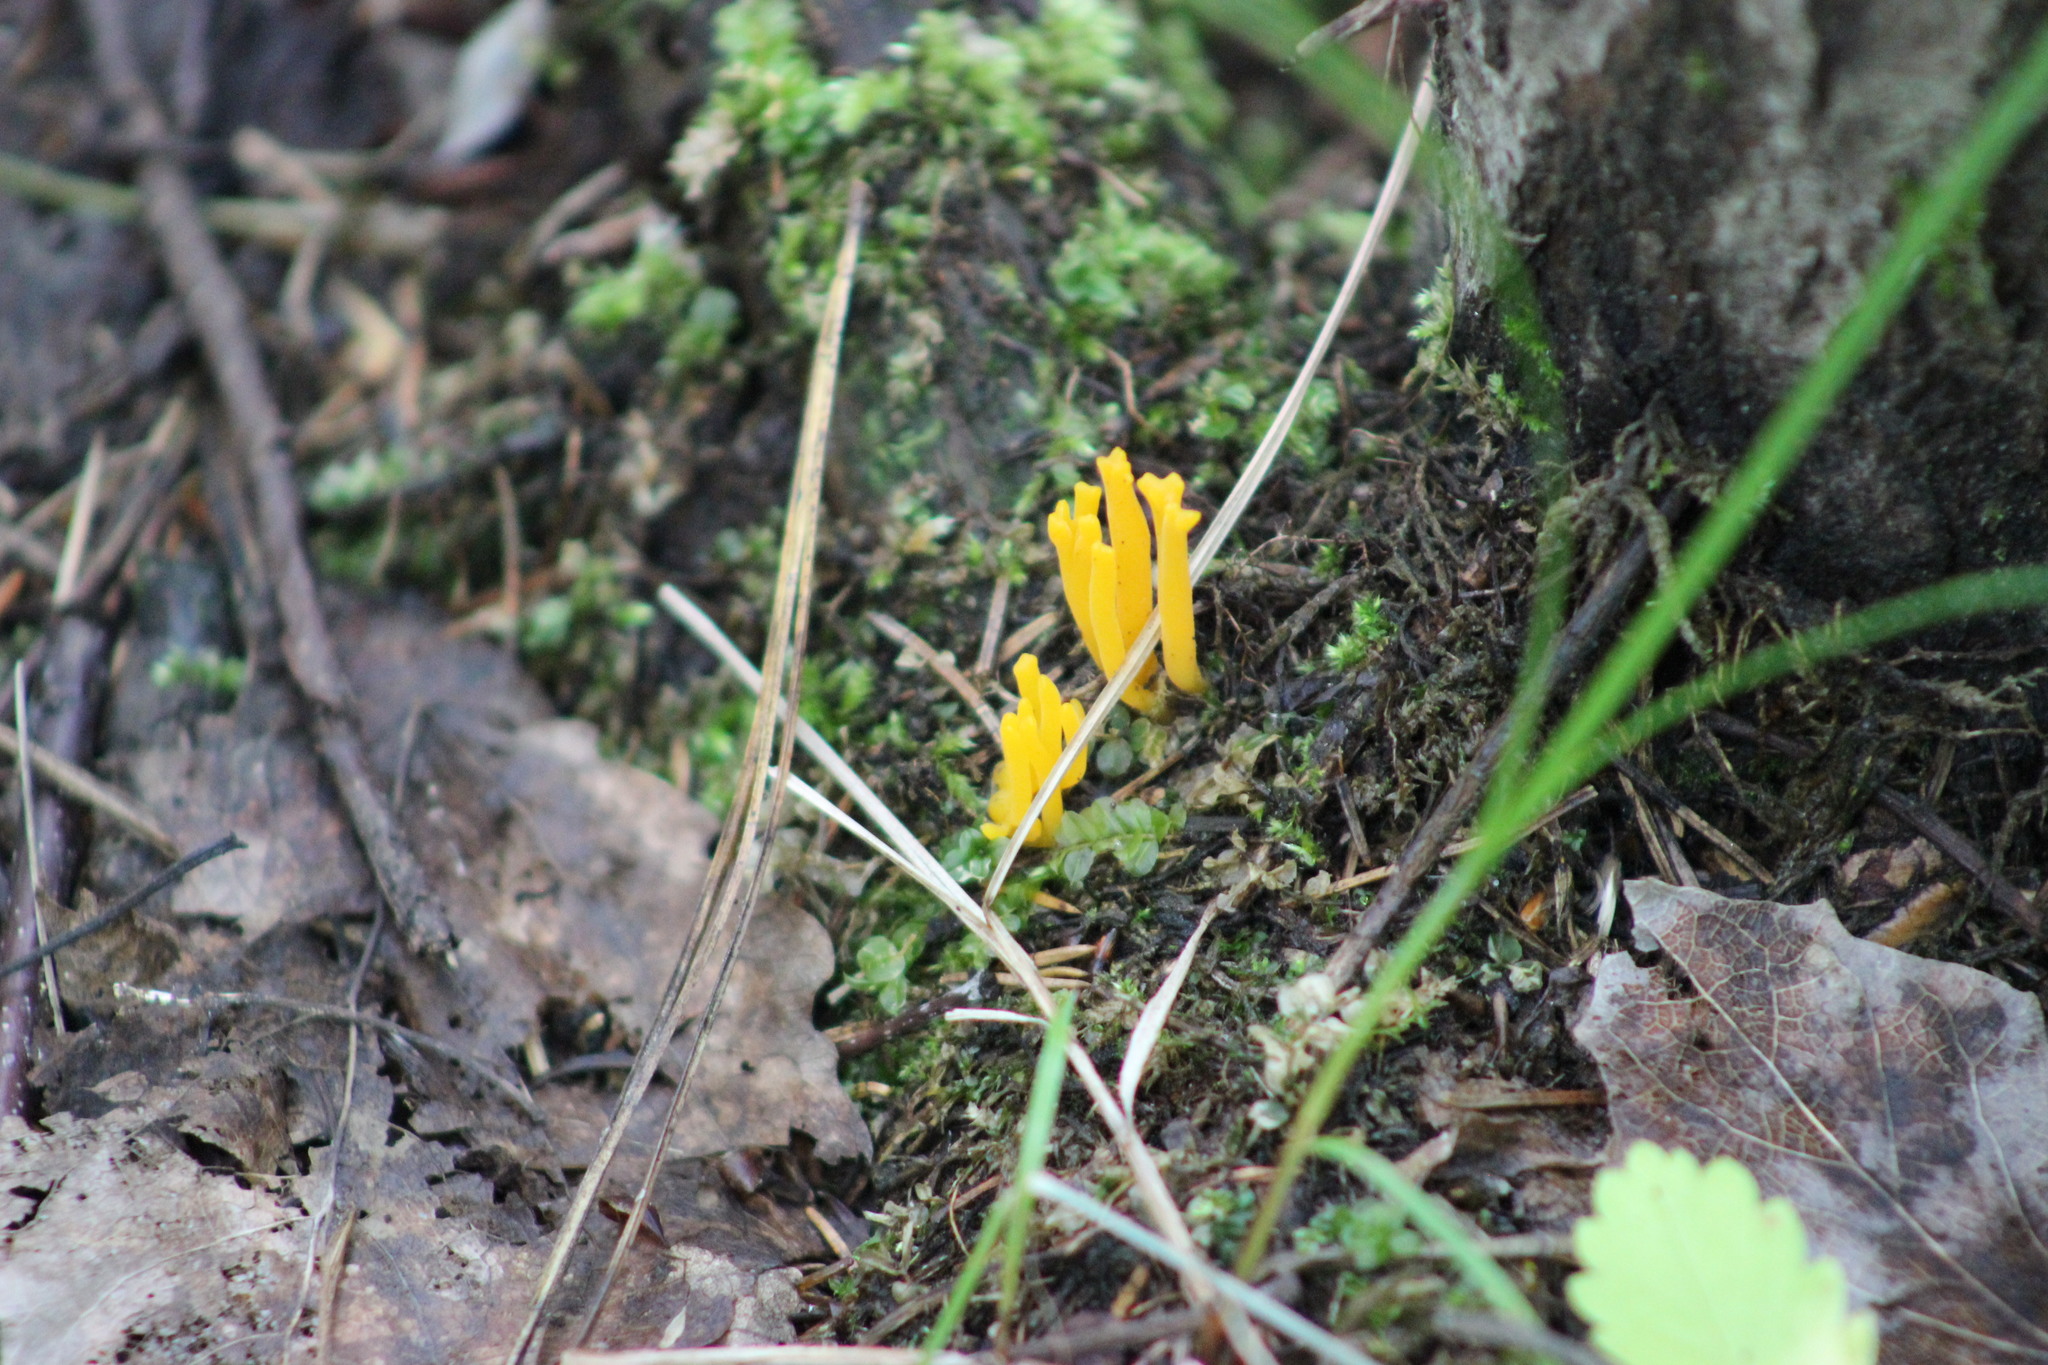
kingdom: Fungi
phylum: Basidiomycota
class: Dacrymycetes
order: Dacrymycetales
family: Dacrymycetaceae
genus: Calocera
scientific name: Calocera viscosa
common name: Yellow stagshorn
